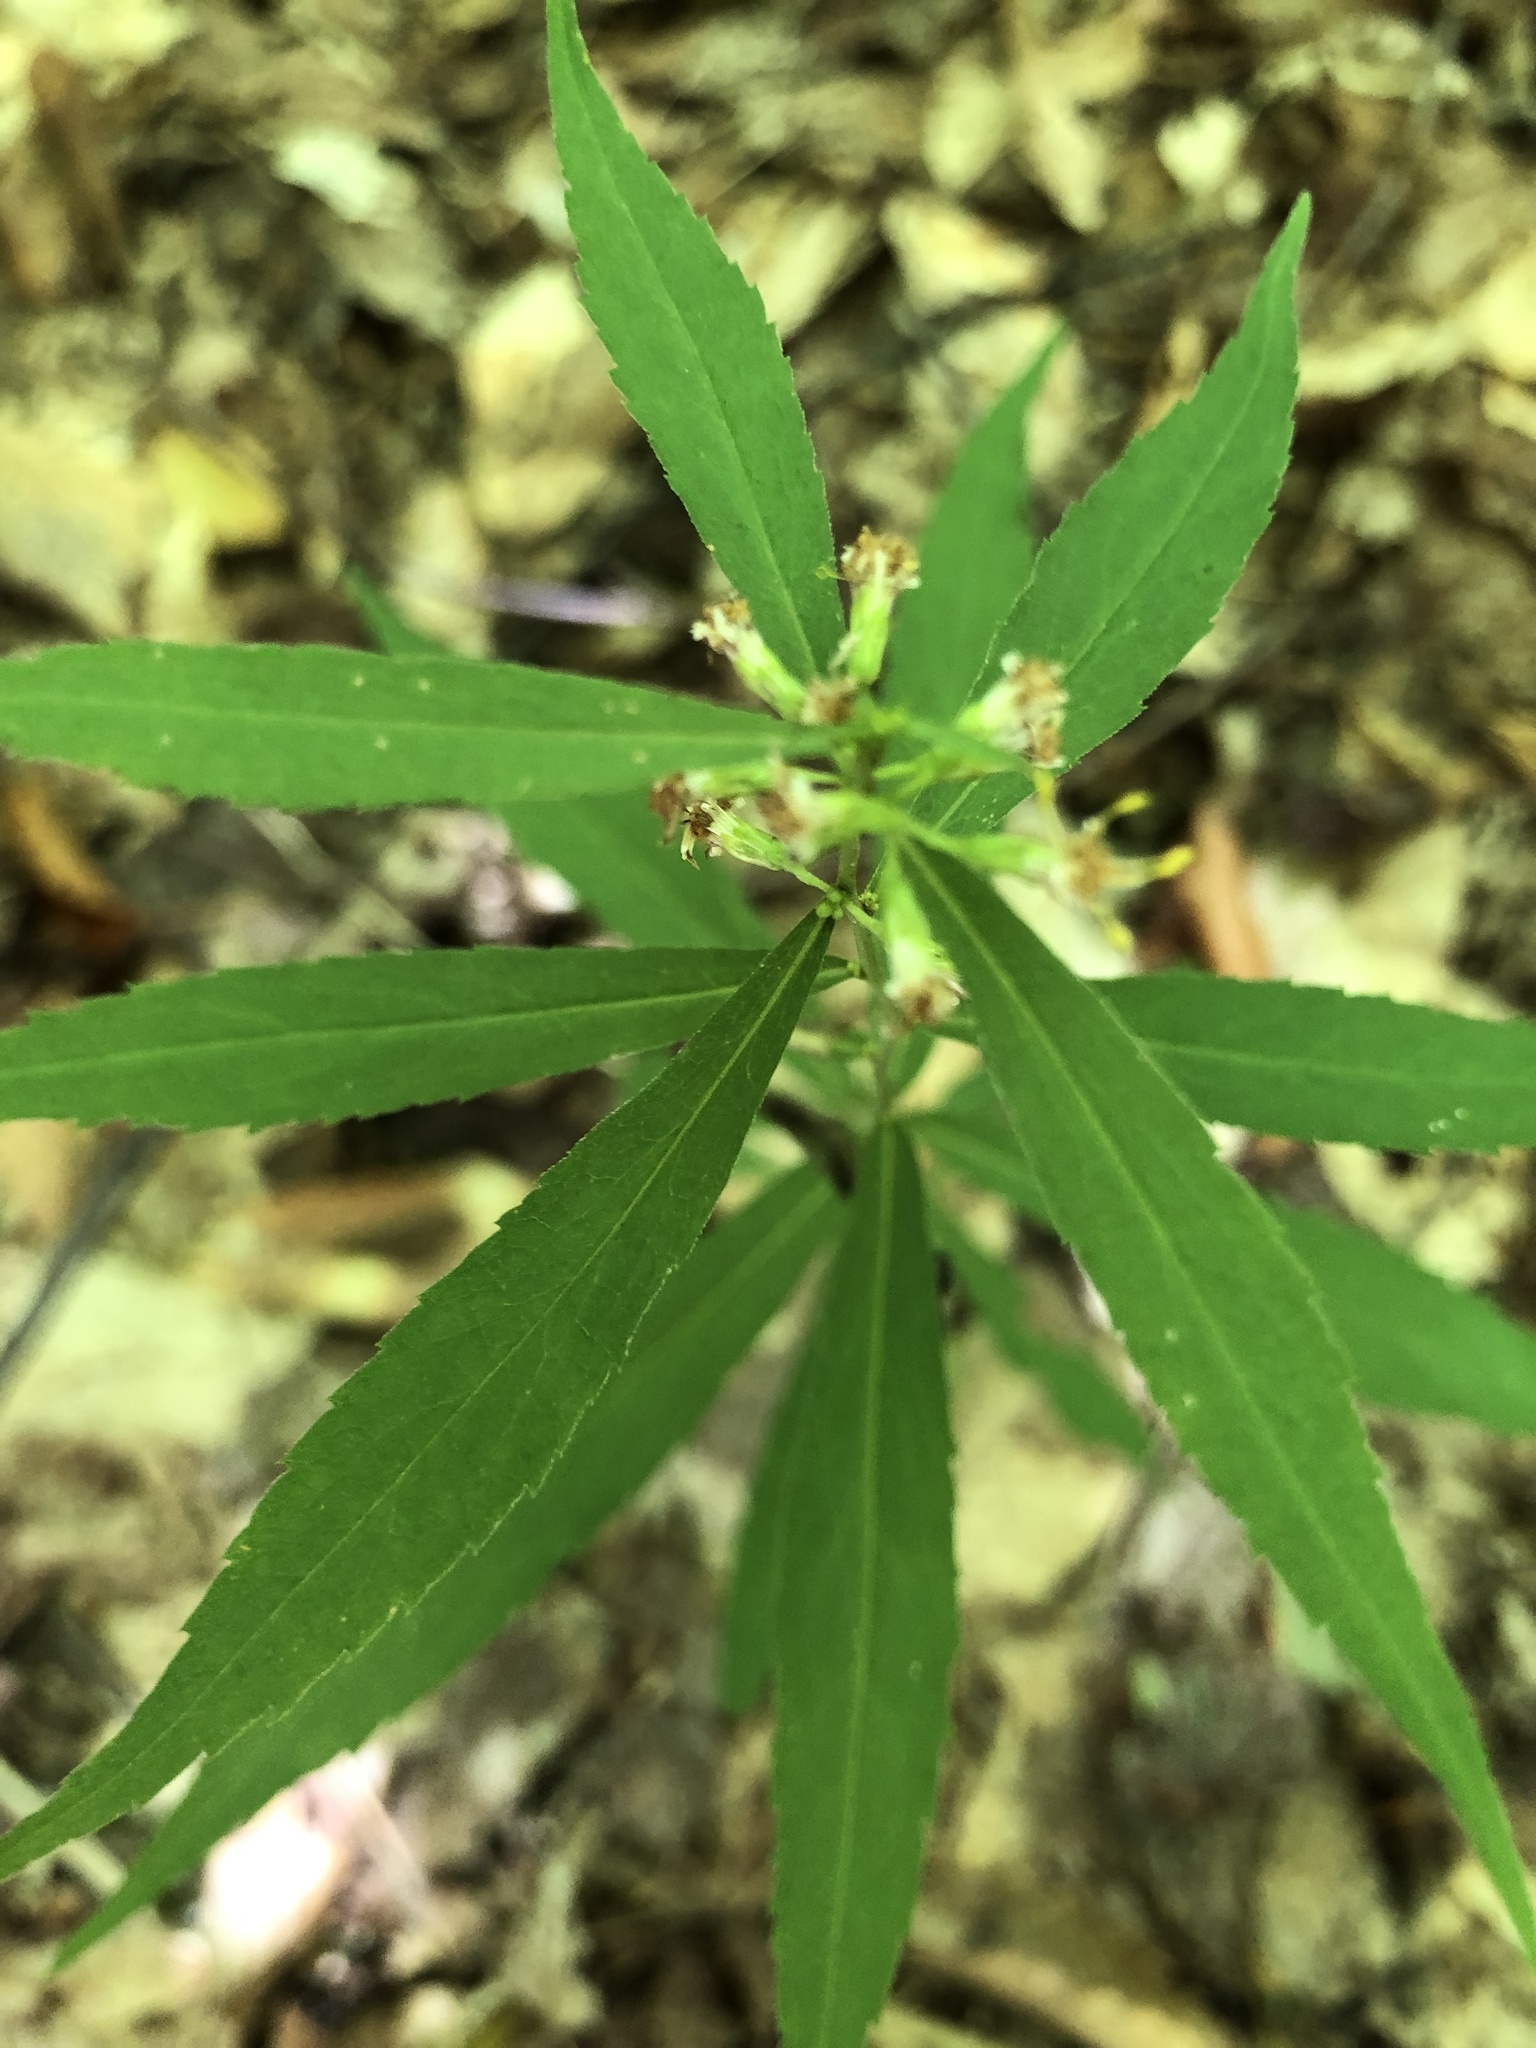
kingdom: Plantae
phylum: Tracheophyta
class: Magnoliopsida
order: Asterales
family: Asteraceae
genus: Solidago
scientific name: Solidago caesia
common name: Woodland goldenrod
